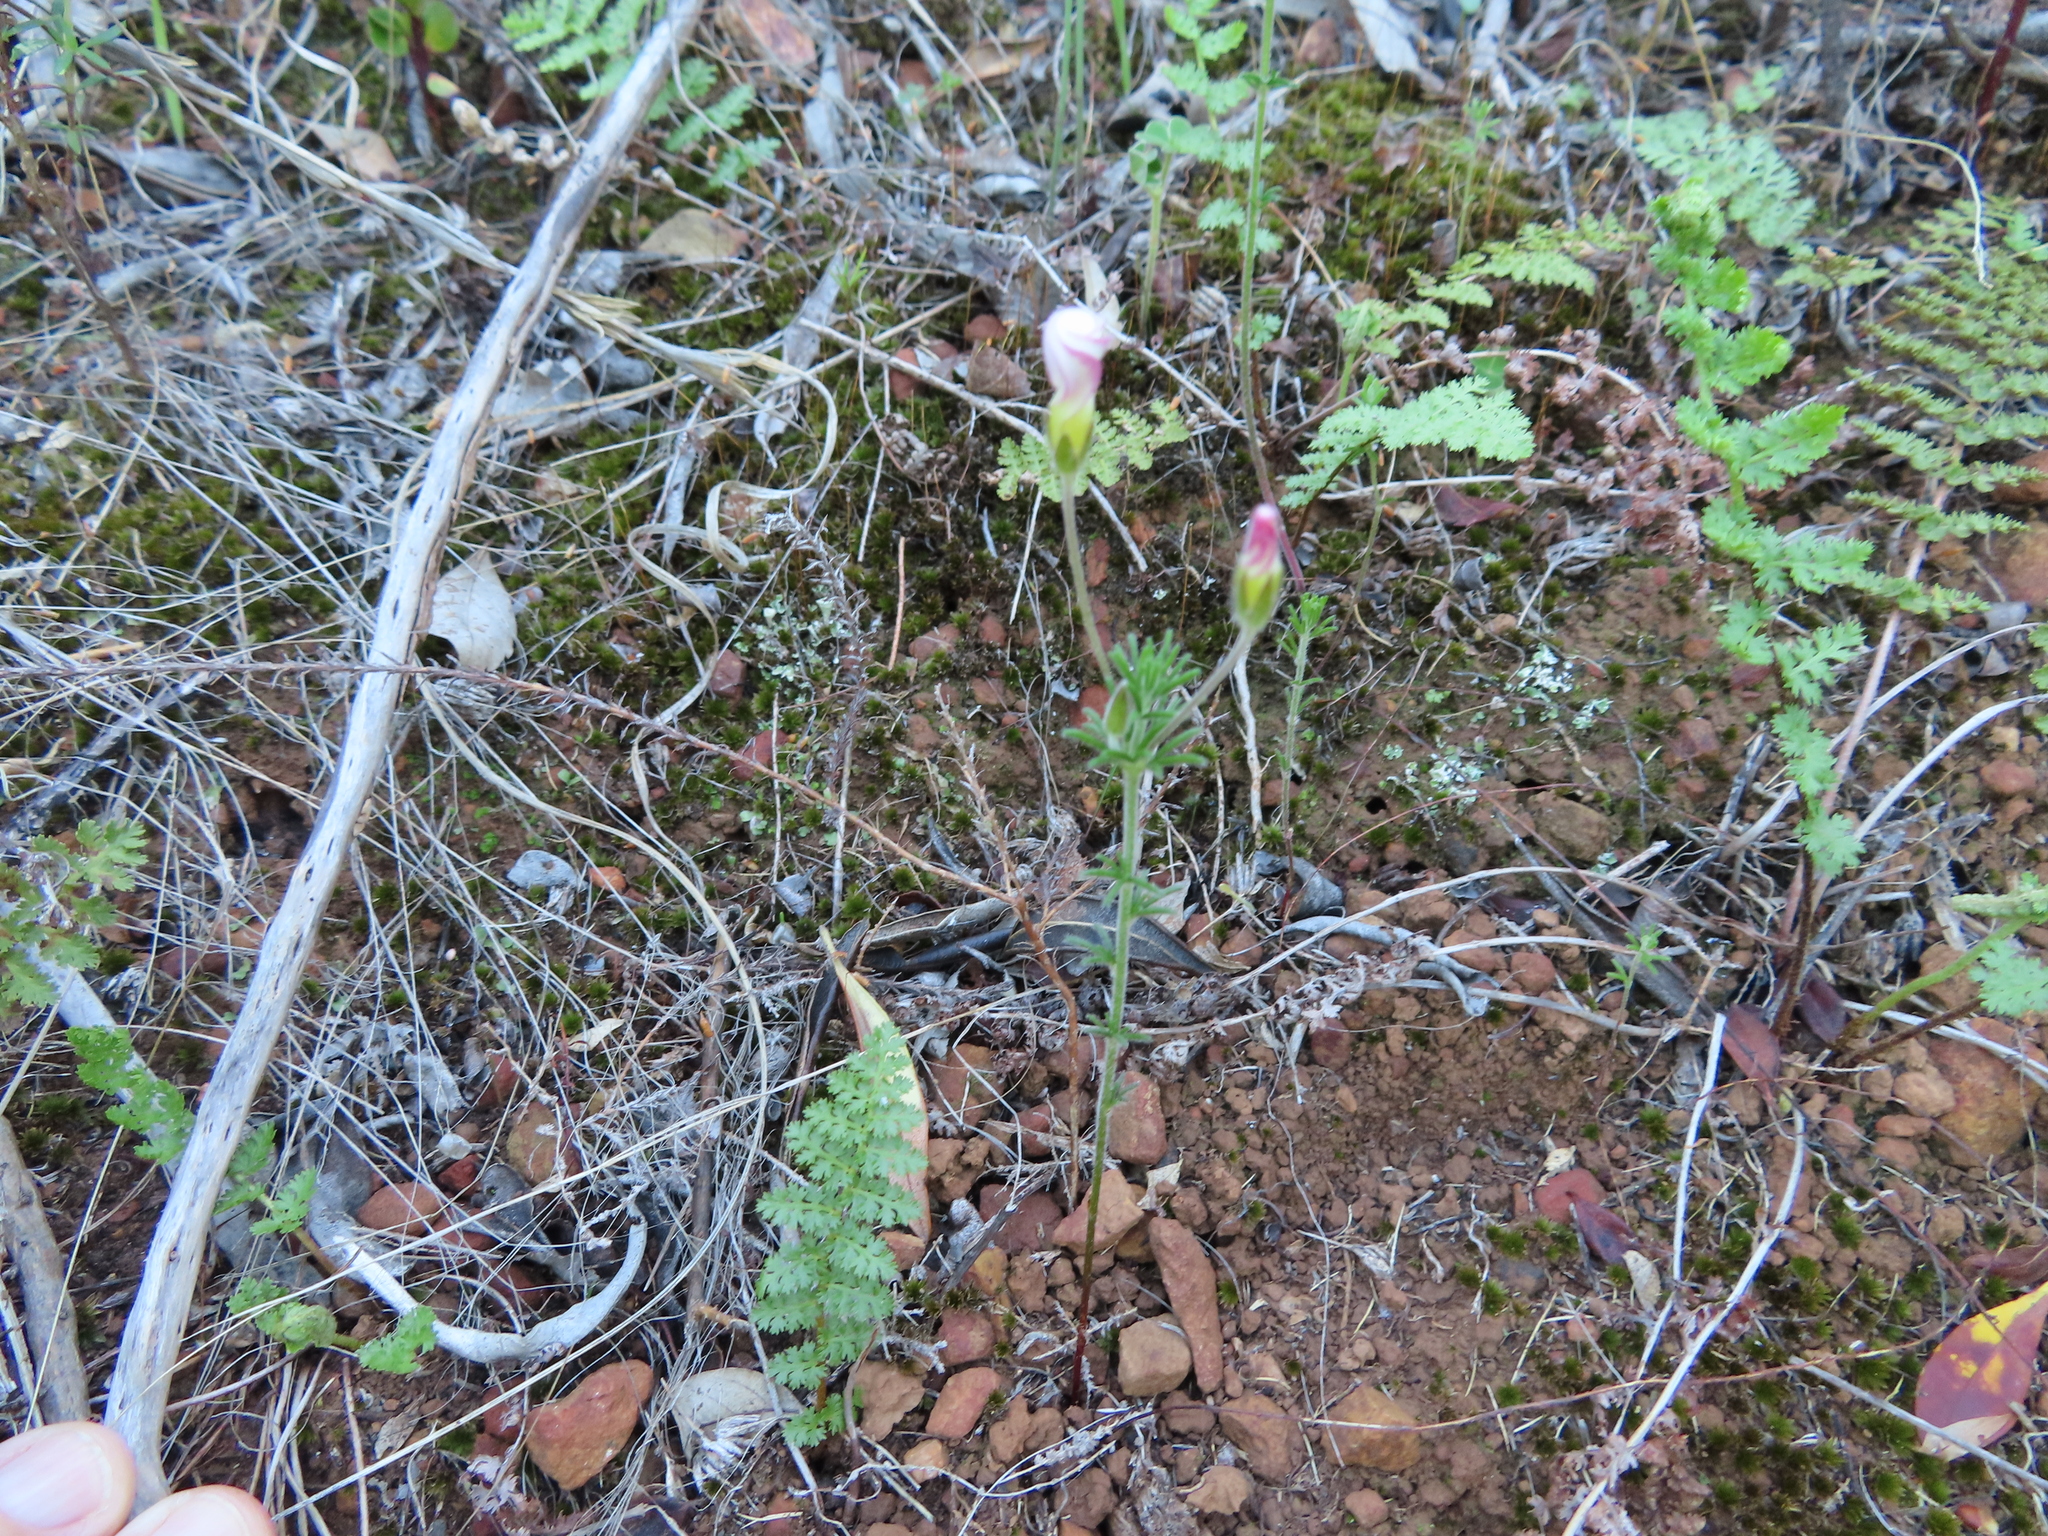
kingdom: Plantae
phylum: Tracheophyta
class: Magnoliopsida
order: Oxalidales
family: Oxalidaceae
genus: Oxalis
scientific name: Oxalis tenuifolia
